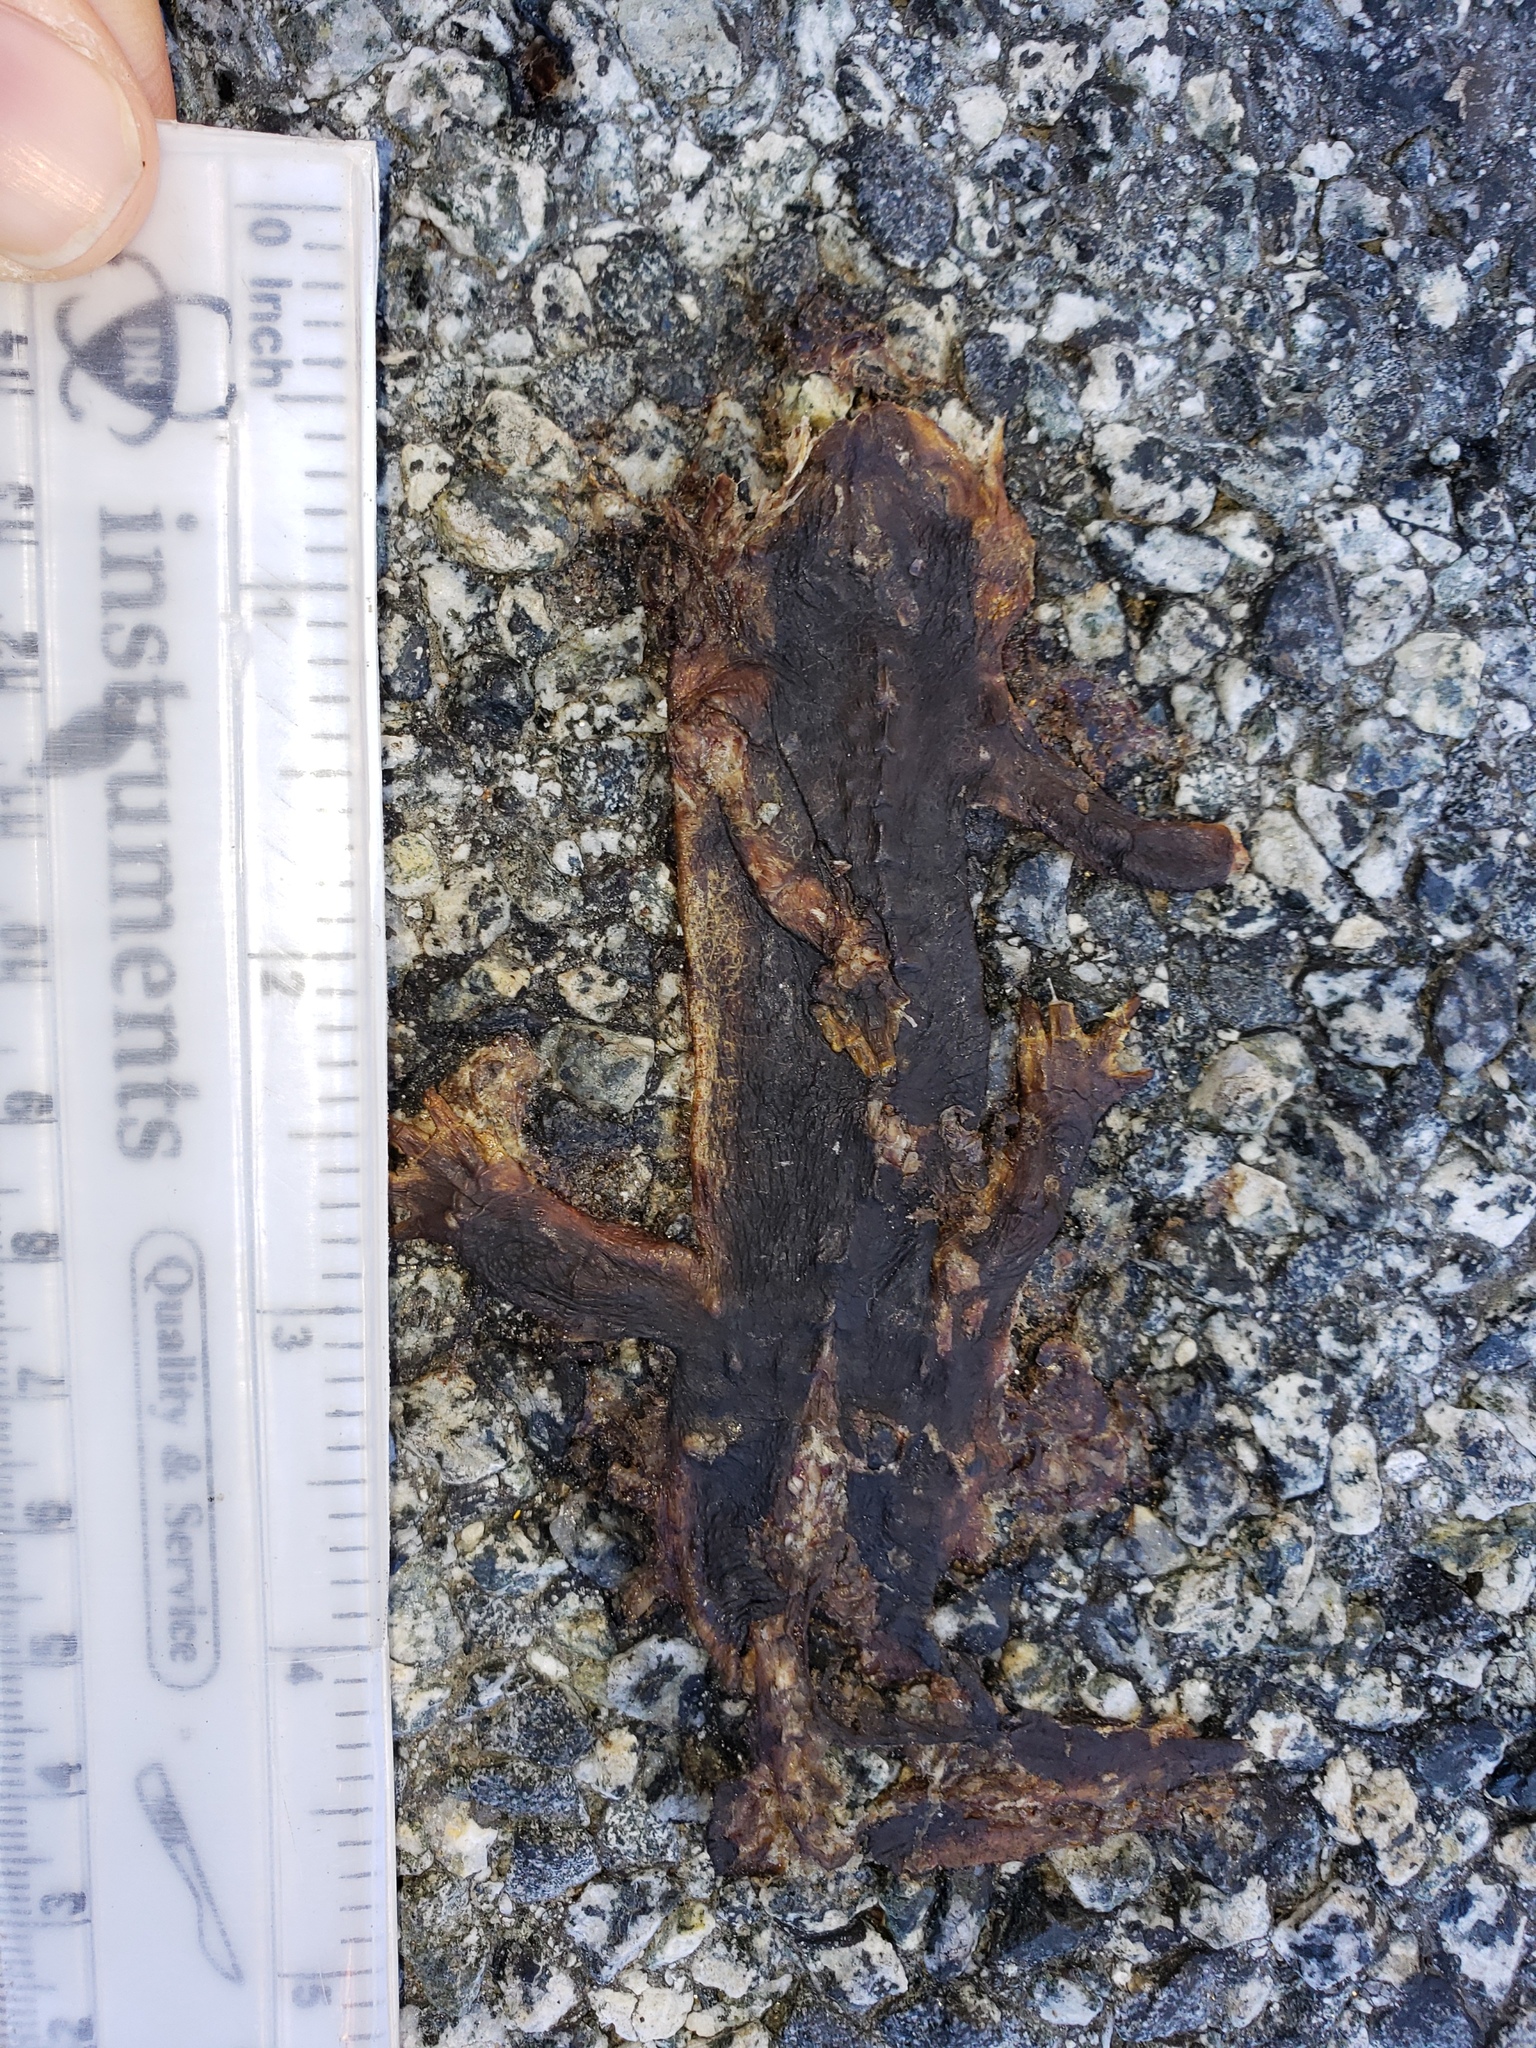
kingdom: Animalia
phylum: Chordata
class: Amphibia
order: Caudata
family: Salamandridae
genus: Taricha
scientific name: Taricha
